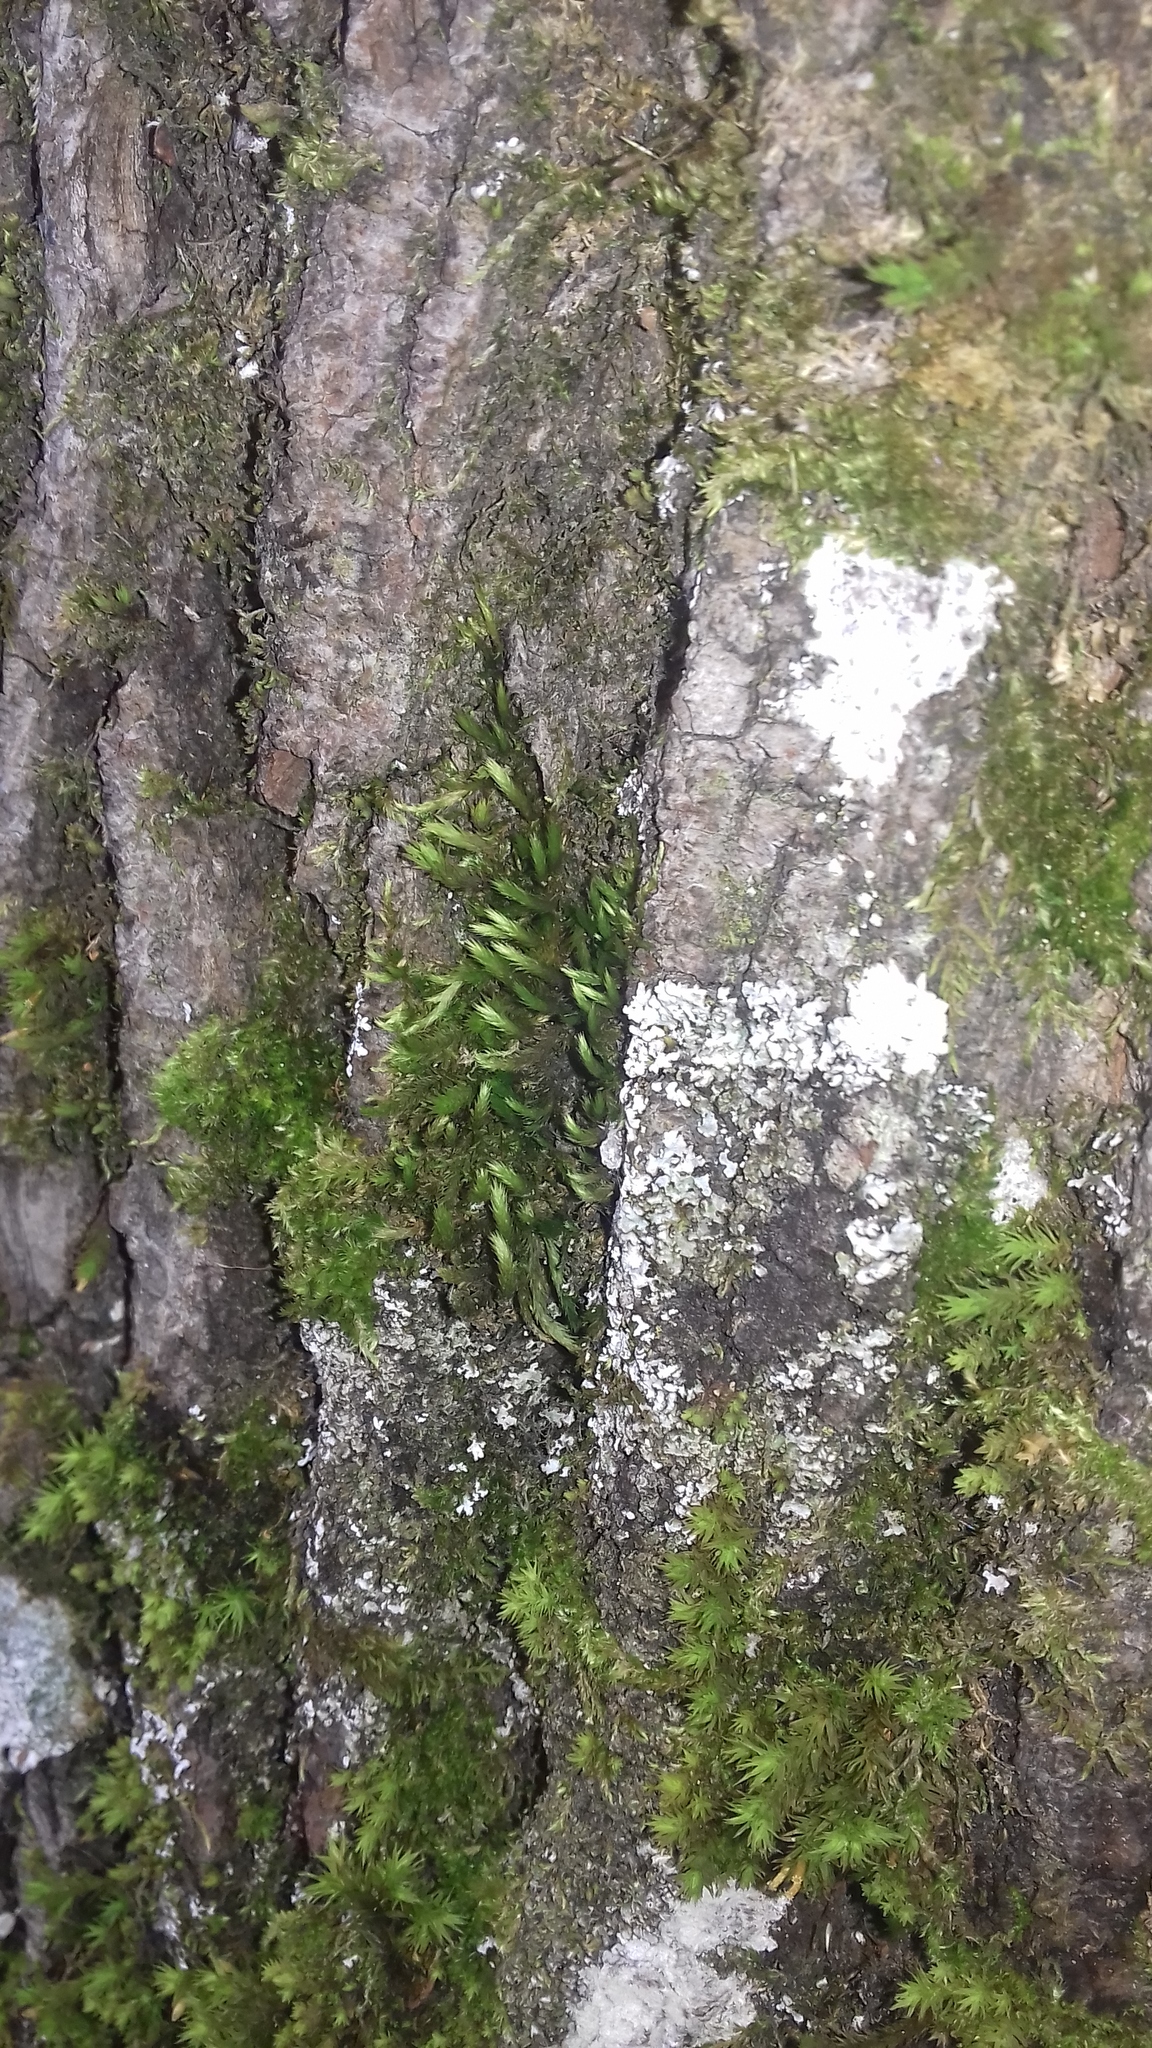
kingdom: Plantae
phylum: Bryophyta
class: Bryopsida
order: Hypnales
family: Leucodontaceae
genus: Leucodon
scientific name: Leucodon sciuroides
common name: Squirrel-tail moss
